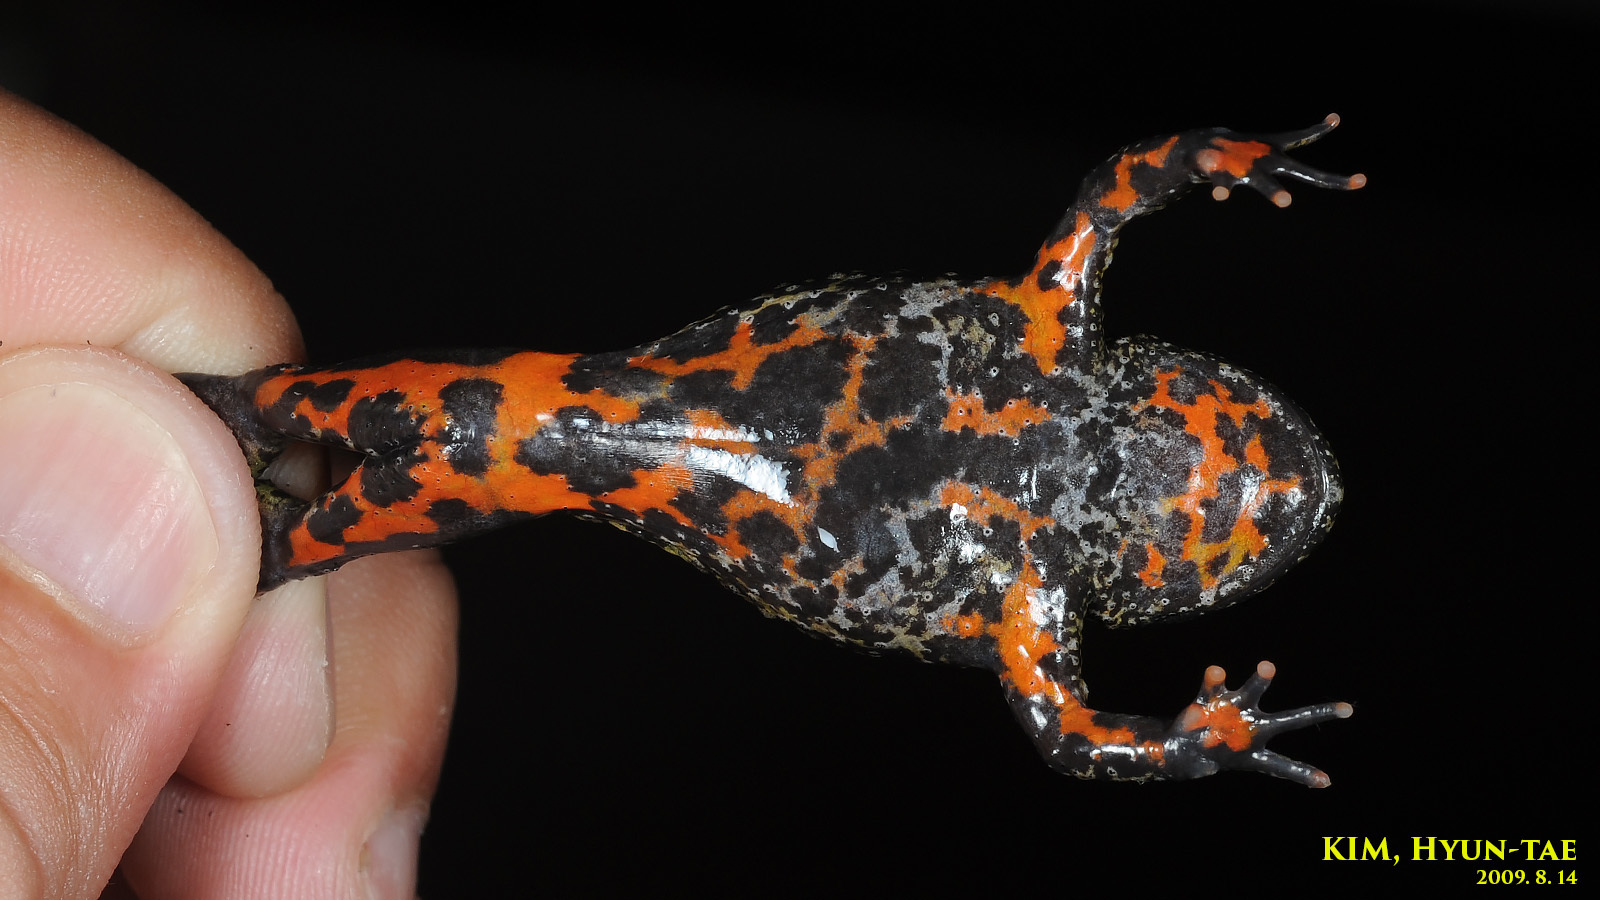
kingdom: Animalia
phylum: Chordata
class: Amphibia
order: Anura
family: Bombinatoridae
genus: Bombina
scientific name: Bombina orientalis
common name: Oriental firebelly toad
